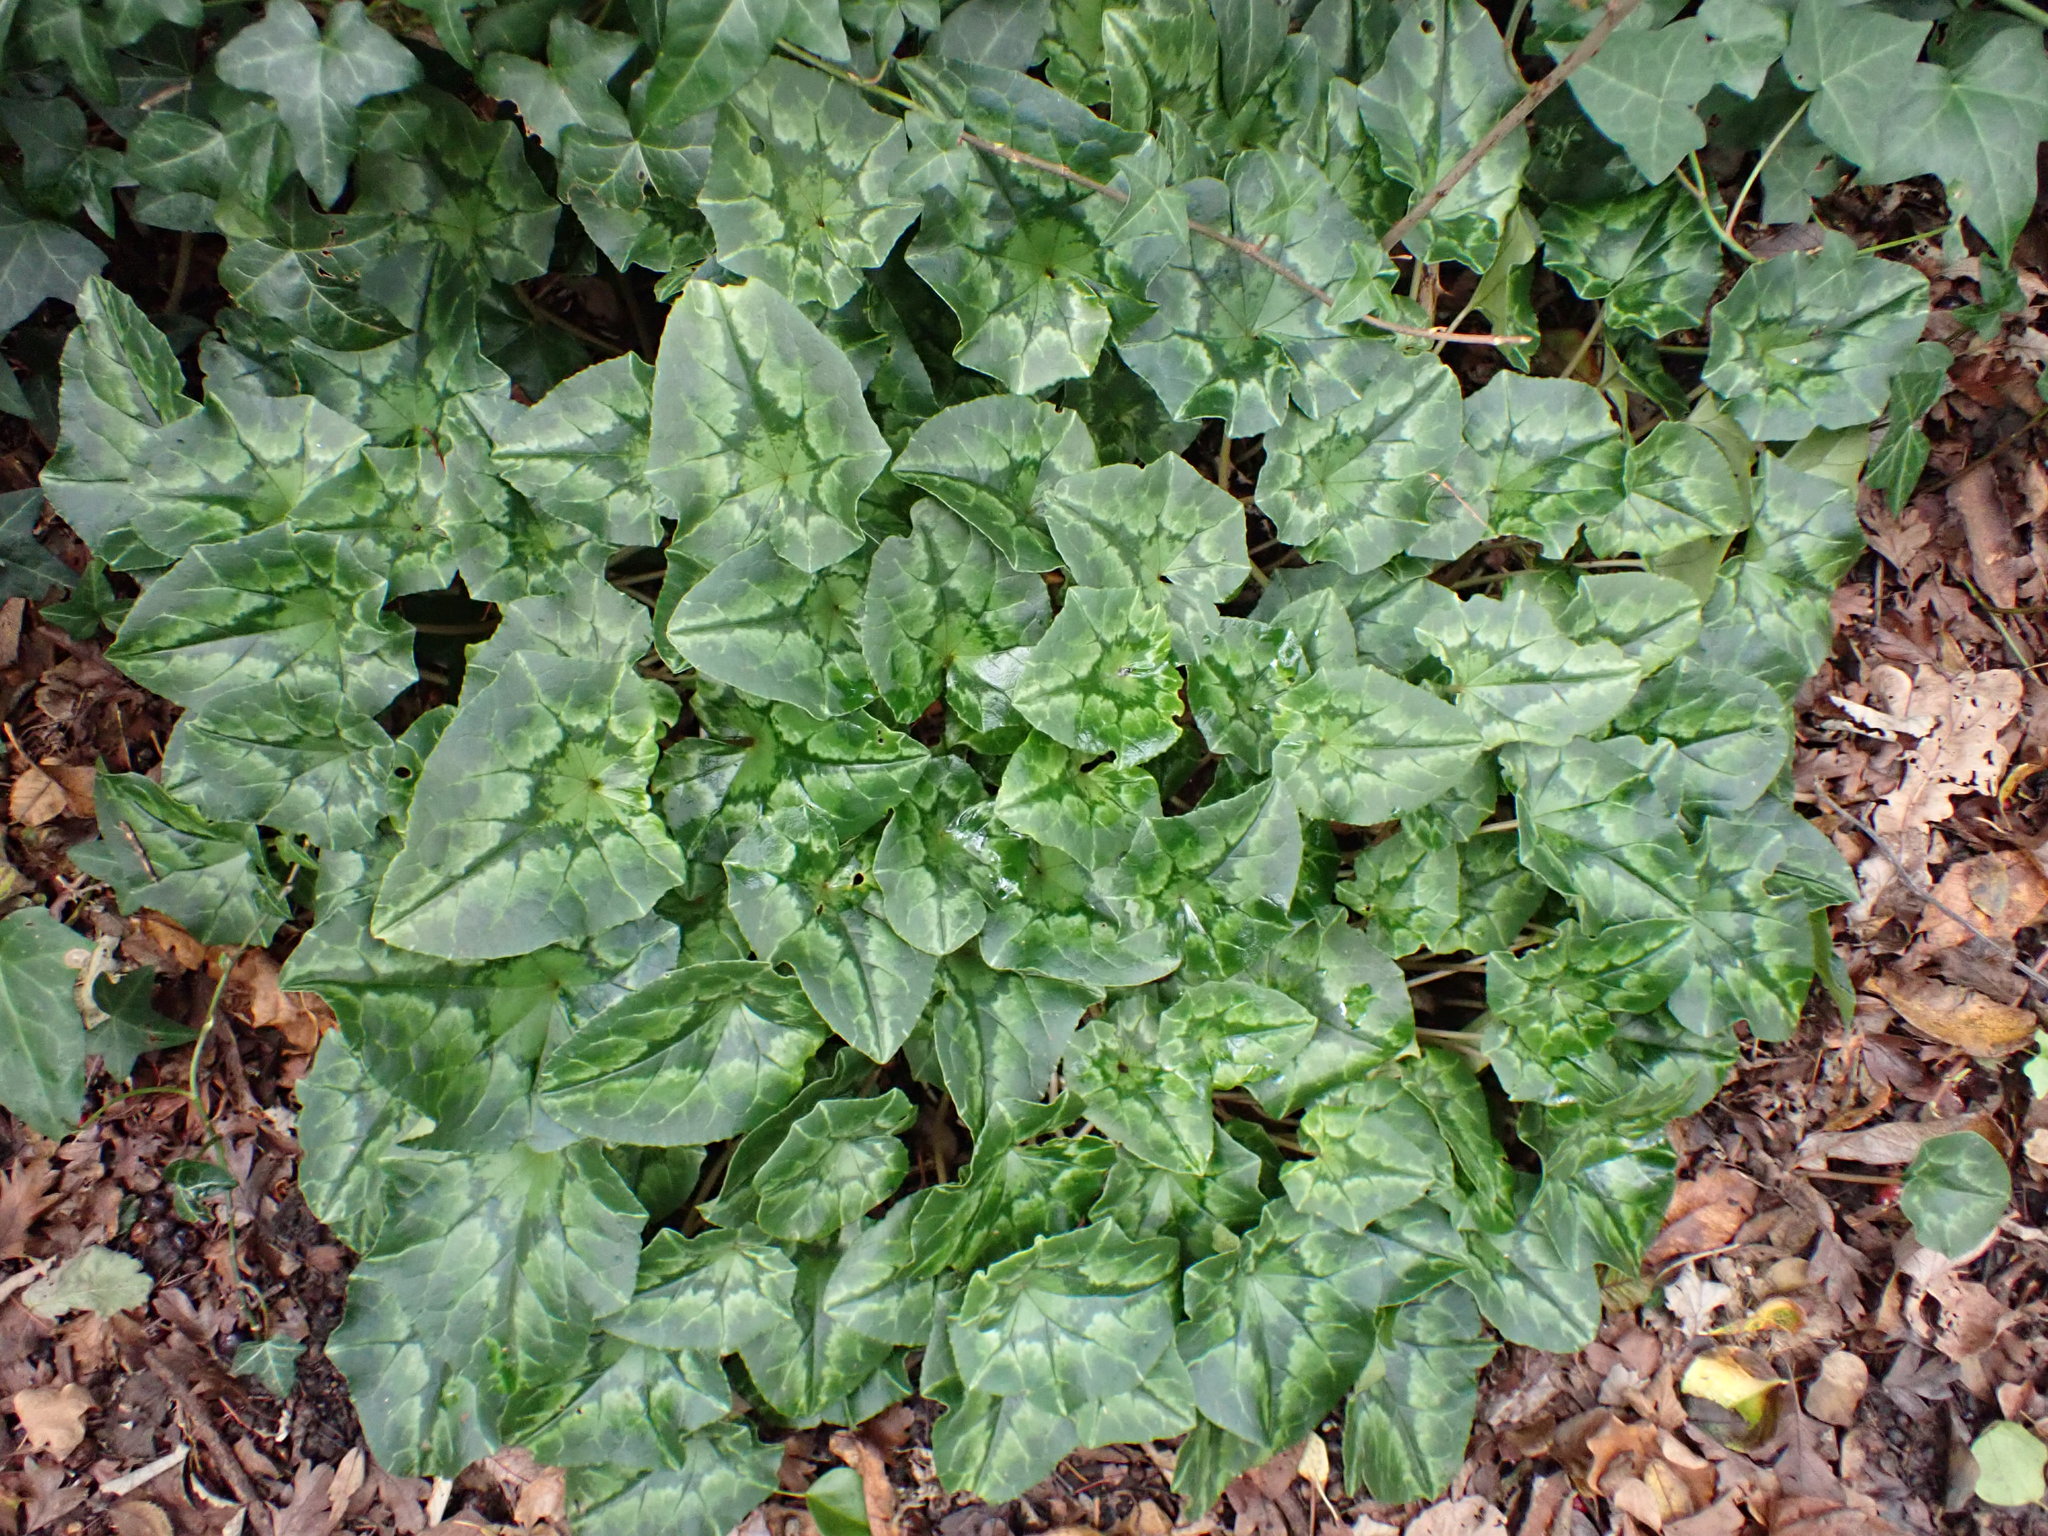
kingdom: Plantae
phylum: Tracheophyta
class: Magnoliopsida
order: Ericales
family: Primulaceae
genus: Cyclamen
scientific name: Cyclamen hederifolium
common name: Sowbread
